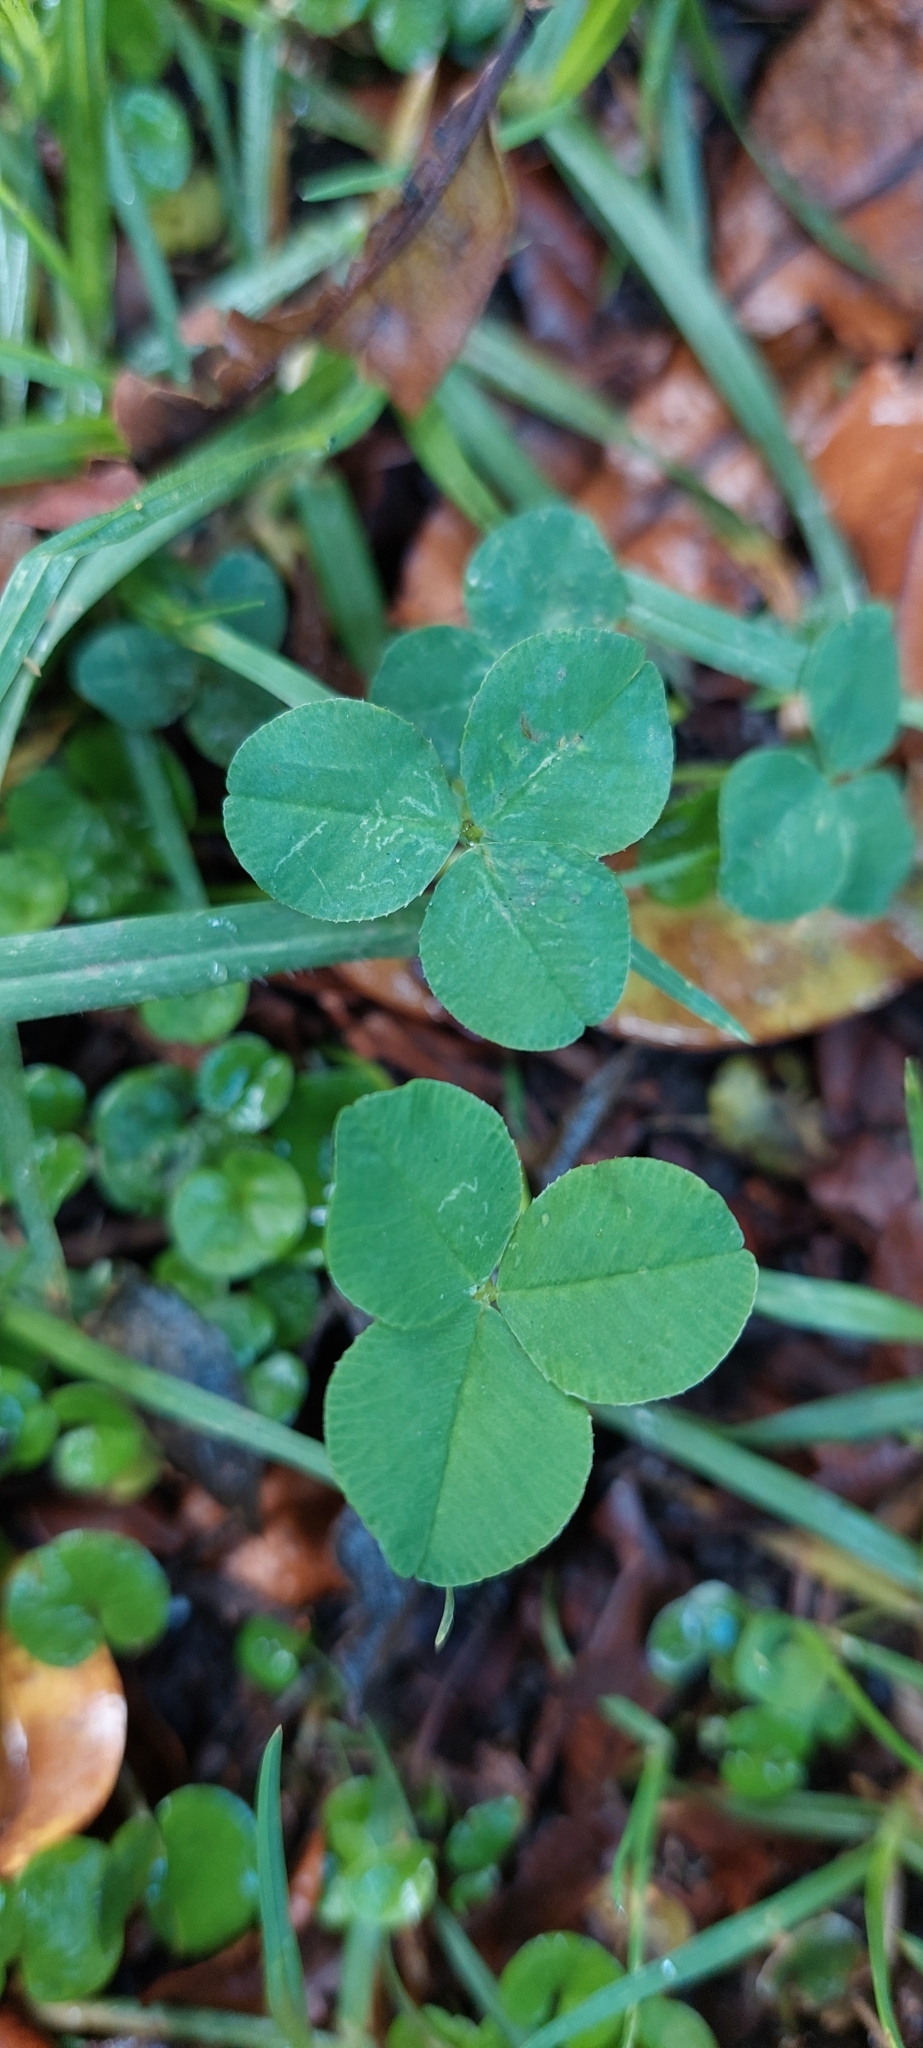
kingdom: Plantae
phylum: Tracheophyta
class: Magnoliopsida
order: Fabales
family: Fabaceae
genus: Trifolium
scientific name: Trifolium repens
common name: White clover
